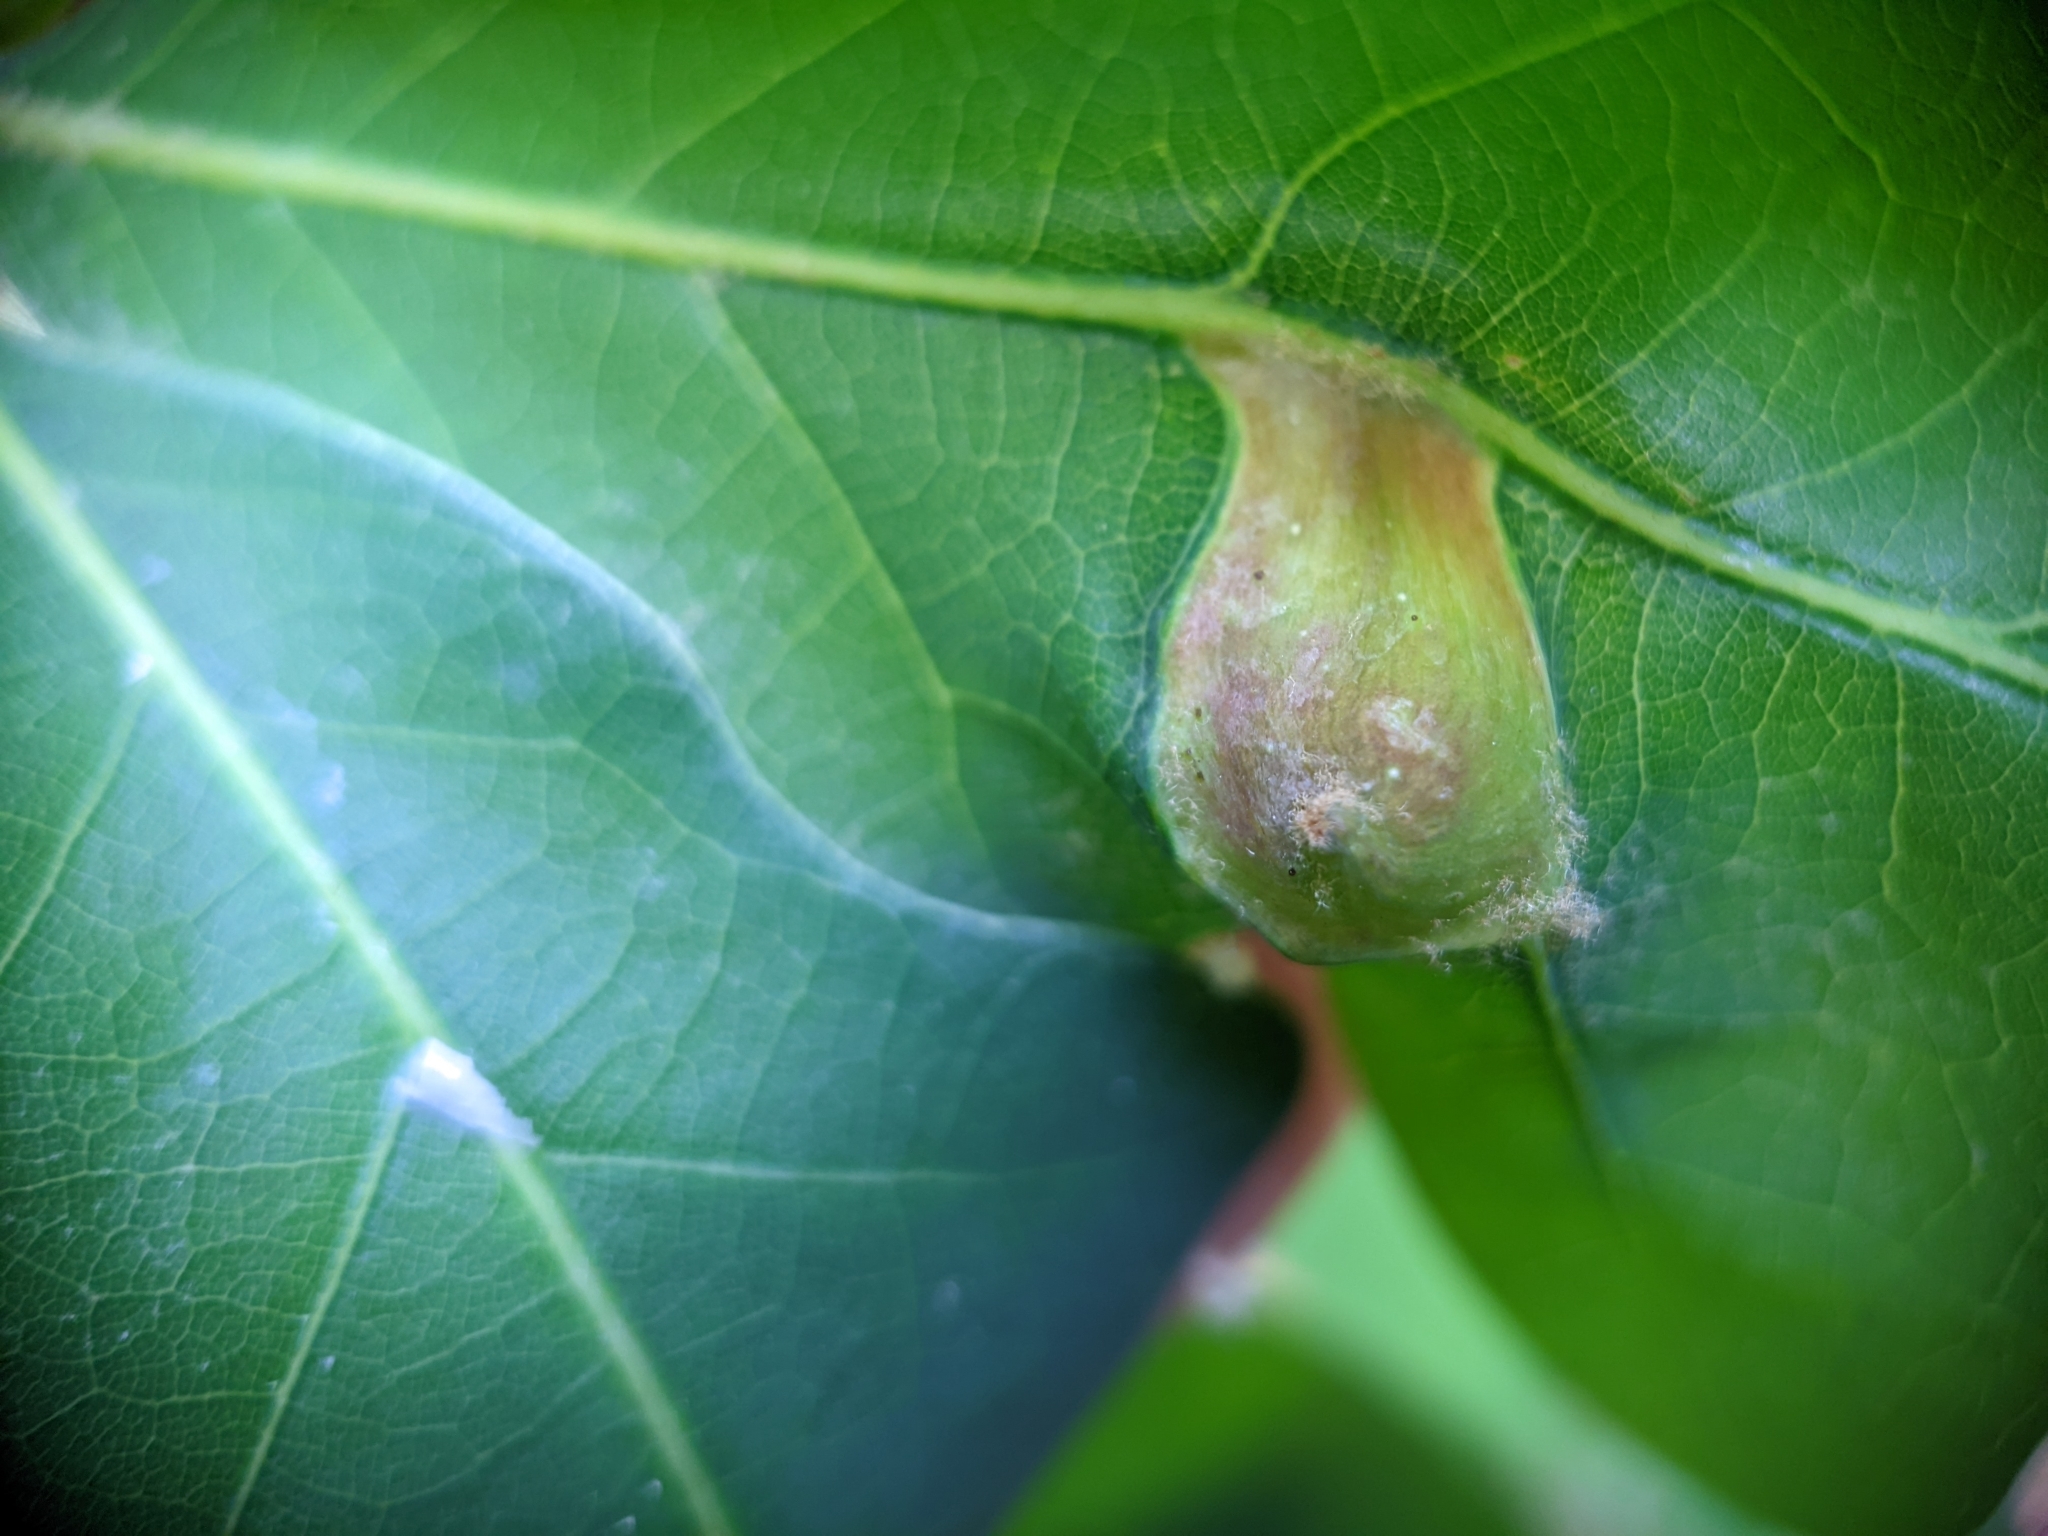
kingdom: Animalia
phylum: Arthropoda
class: Insecta
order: Hymenoptera
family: Cynipidae
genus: Andricus
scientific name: Andricus
